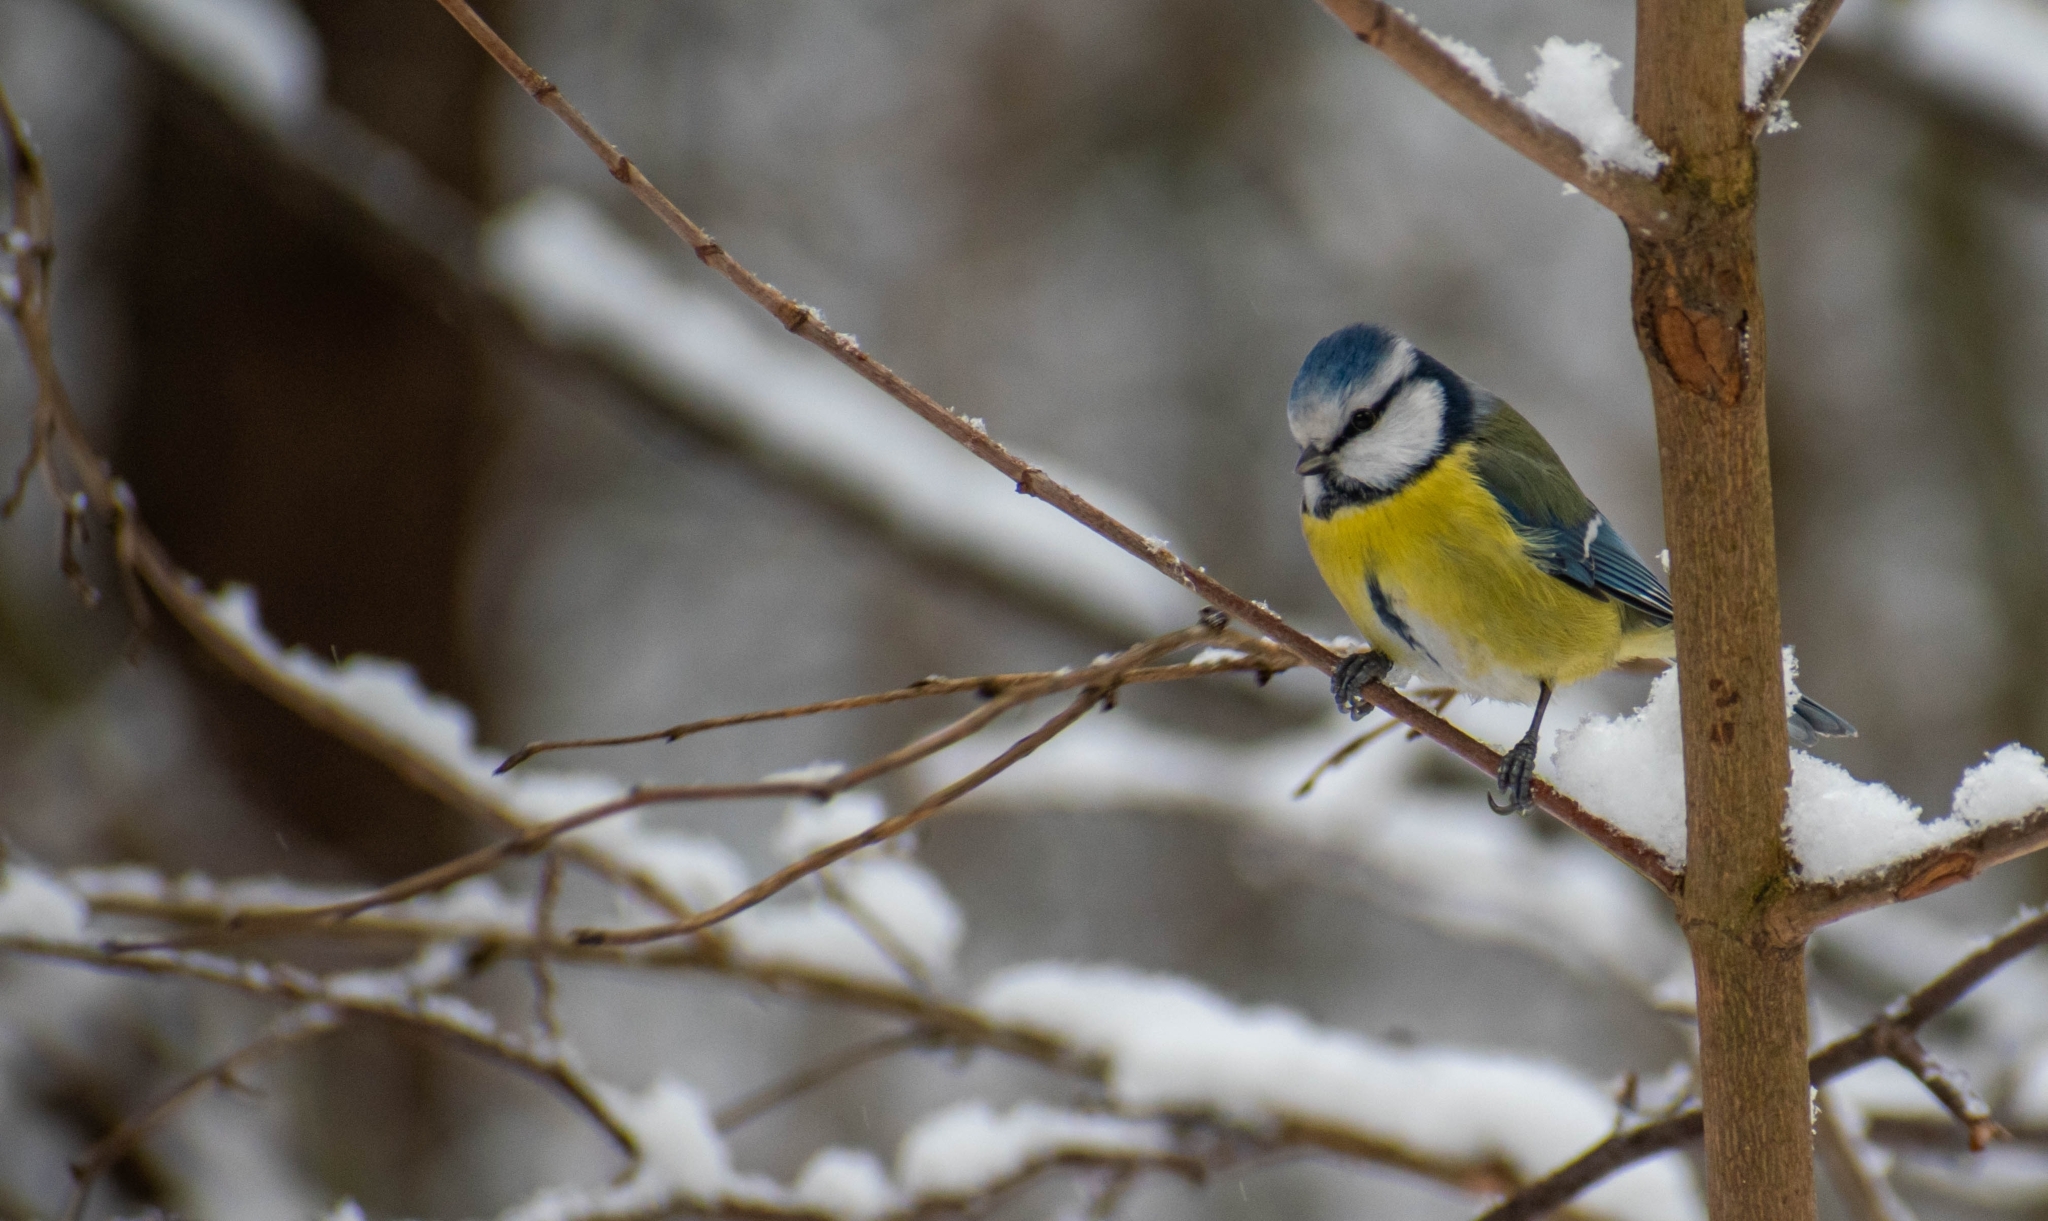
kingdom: Animalia
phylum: Chordata
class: Aves
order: Passeriformes
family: Paridae
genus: Cyanistes
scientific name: Cyanistes caeruleus
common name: Eurasian blue tit
